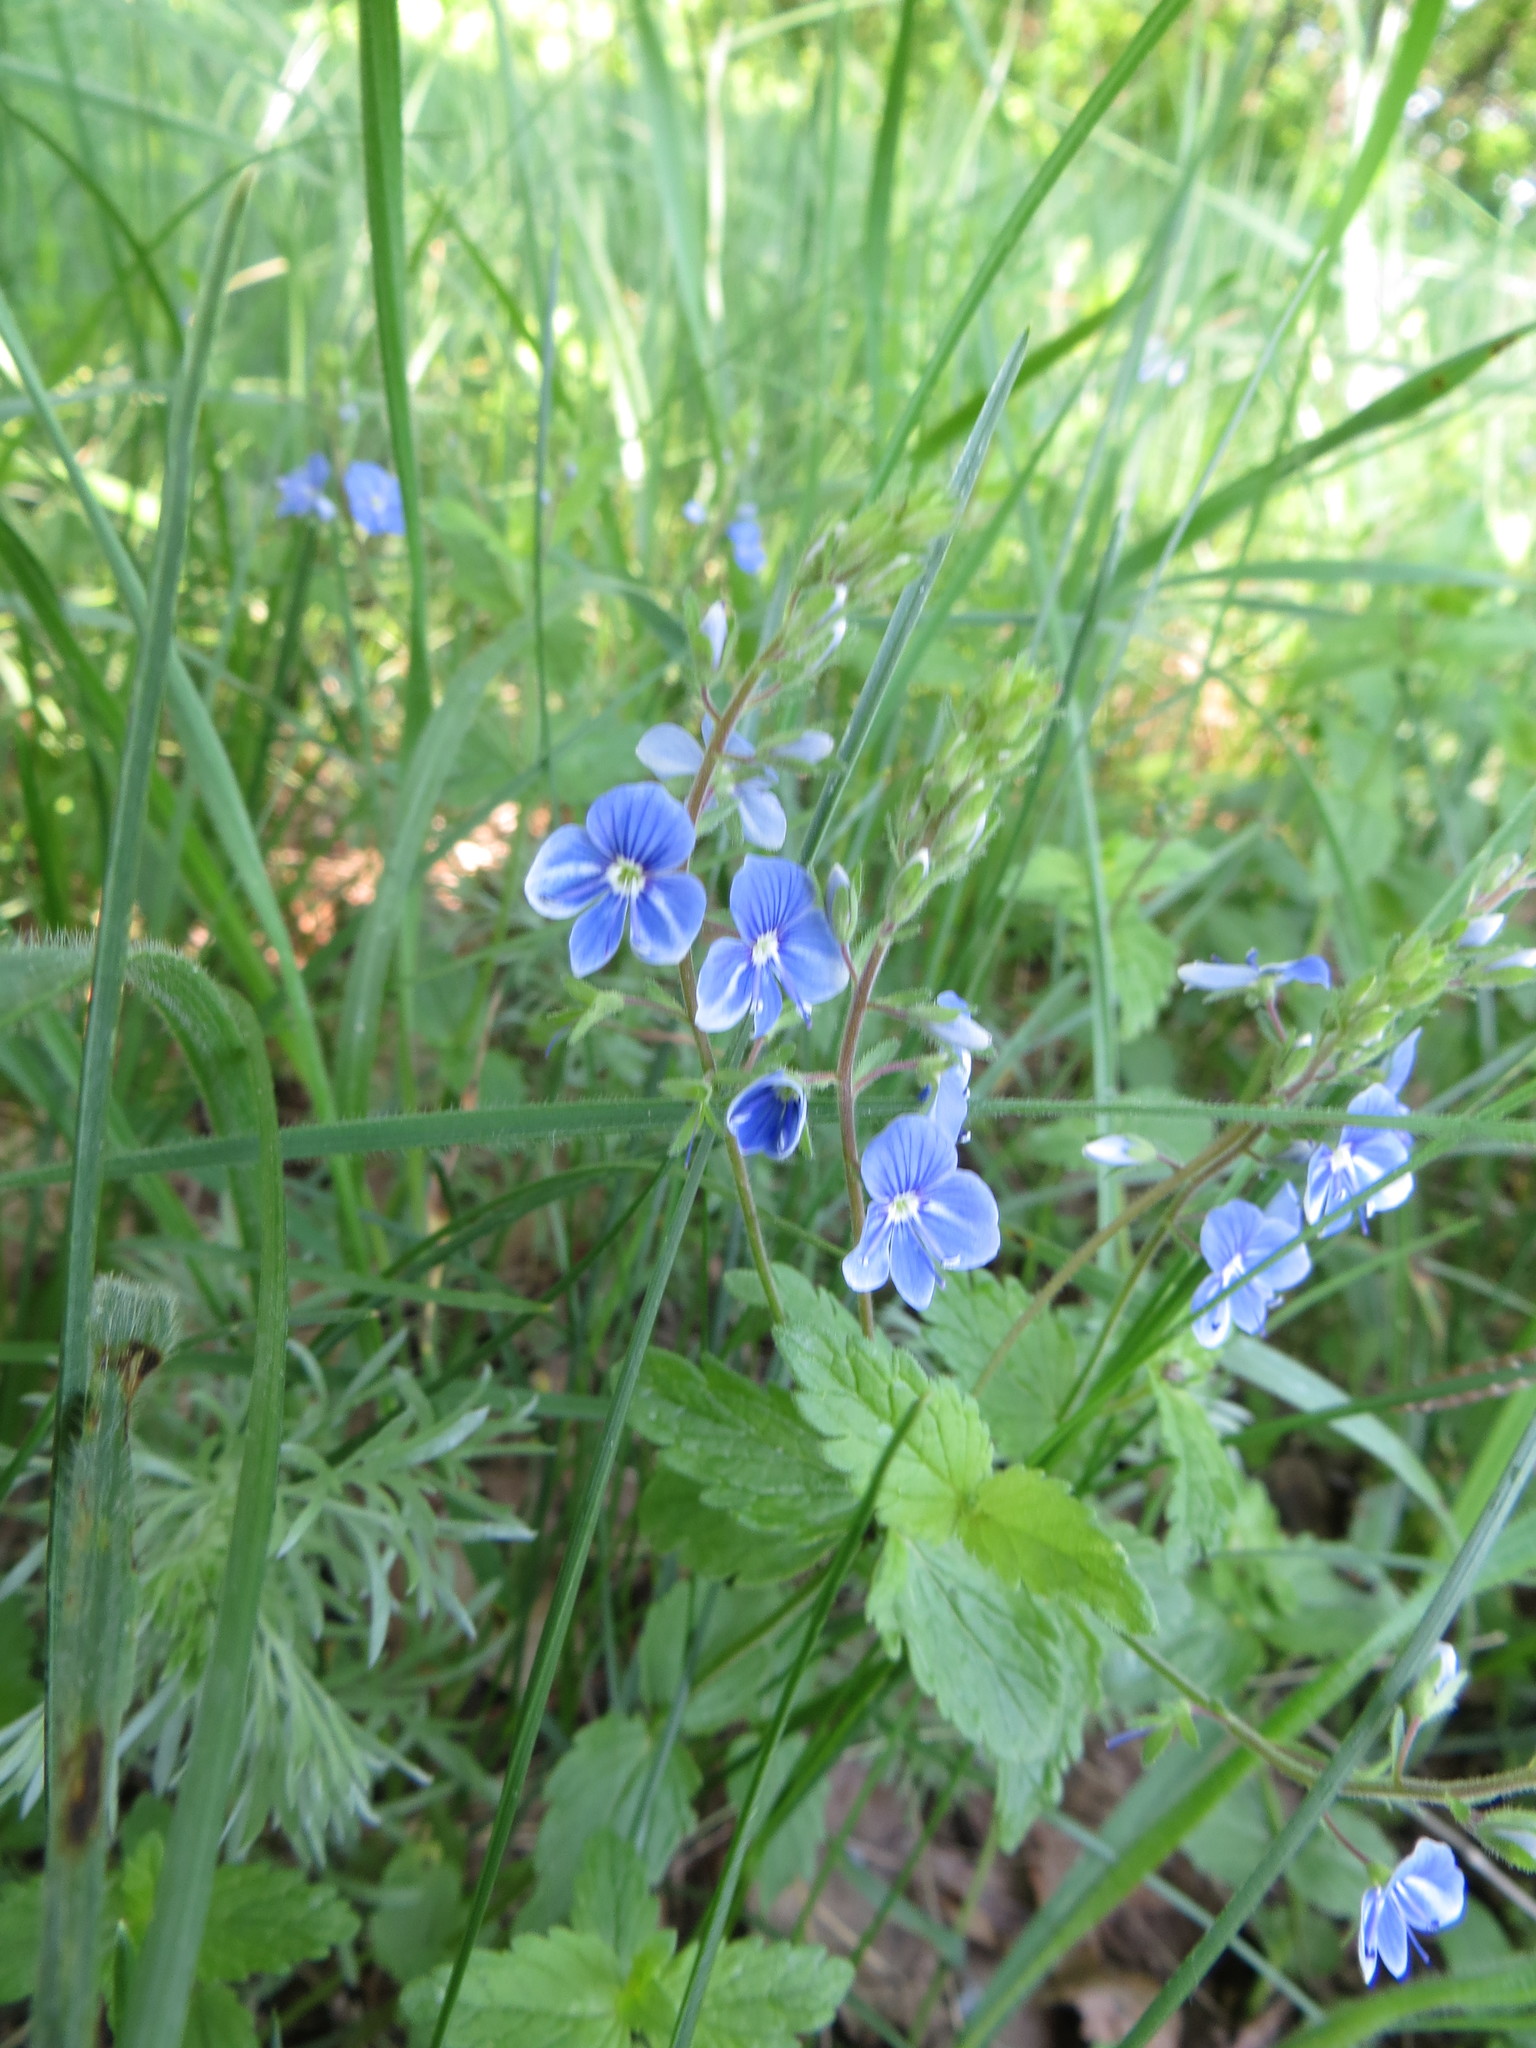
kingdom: Plantae
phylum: Tracheophyta
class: Magnoliopsida
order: Lamiales
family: Plantaginaceae
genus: Veronica
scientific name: Veronica chamaedrys
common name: Germander speedwell
